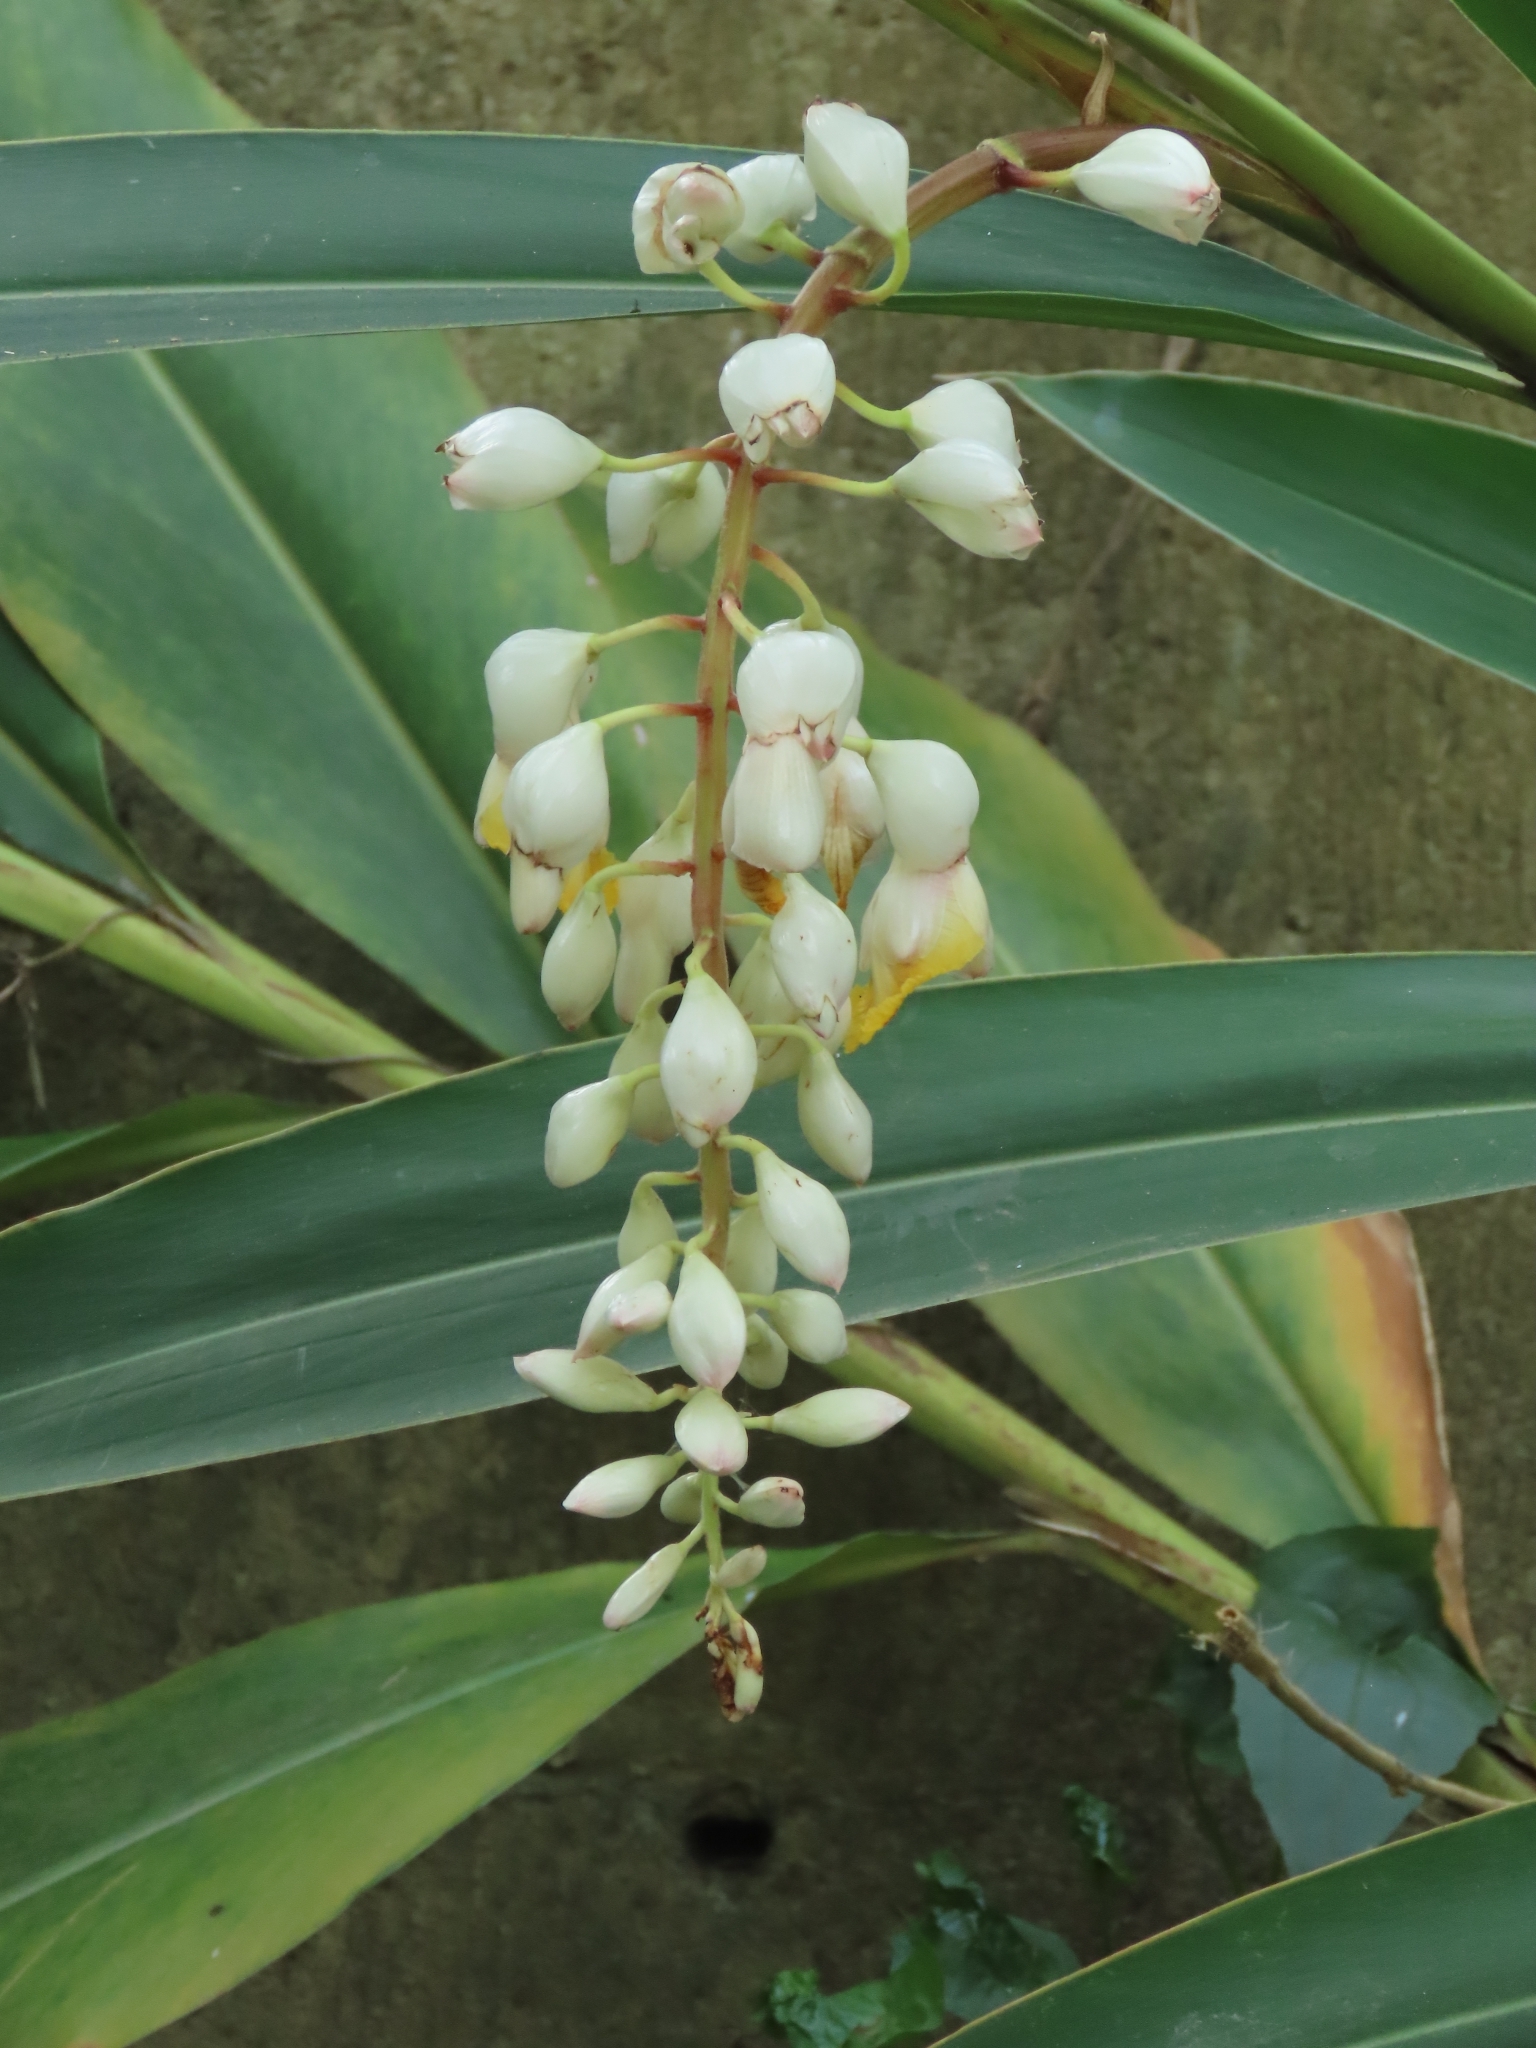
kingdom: Plantae
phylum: Tracheophyta
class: Liliopsida
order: Zingiberales
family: Zingiberaceae
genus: Alpinia
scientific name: Alpinia zerumbet
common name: Shellplant
